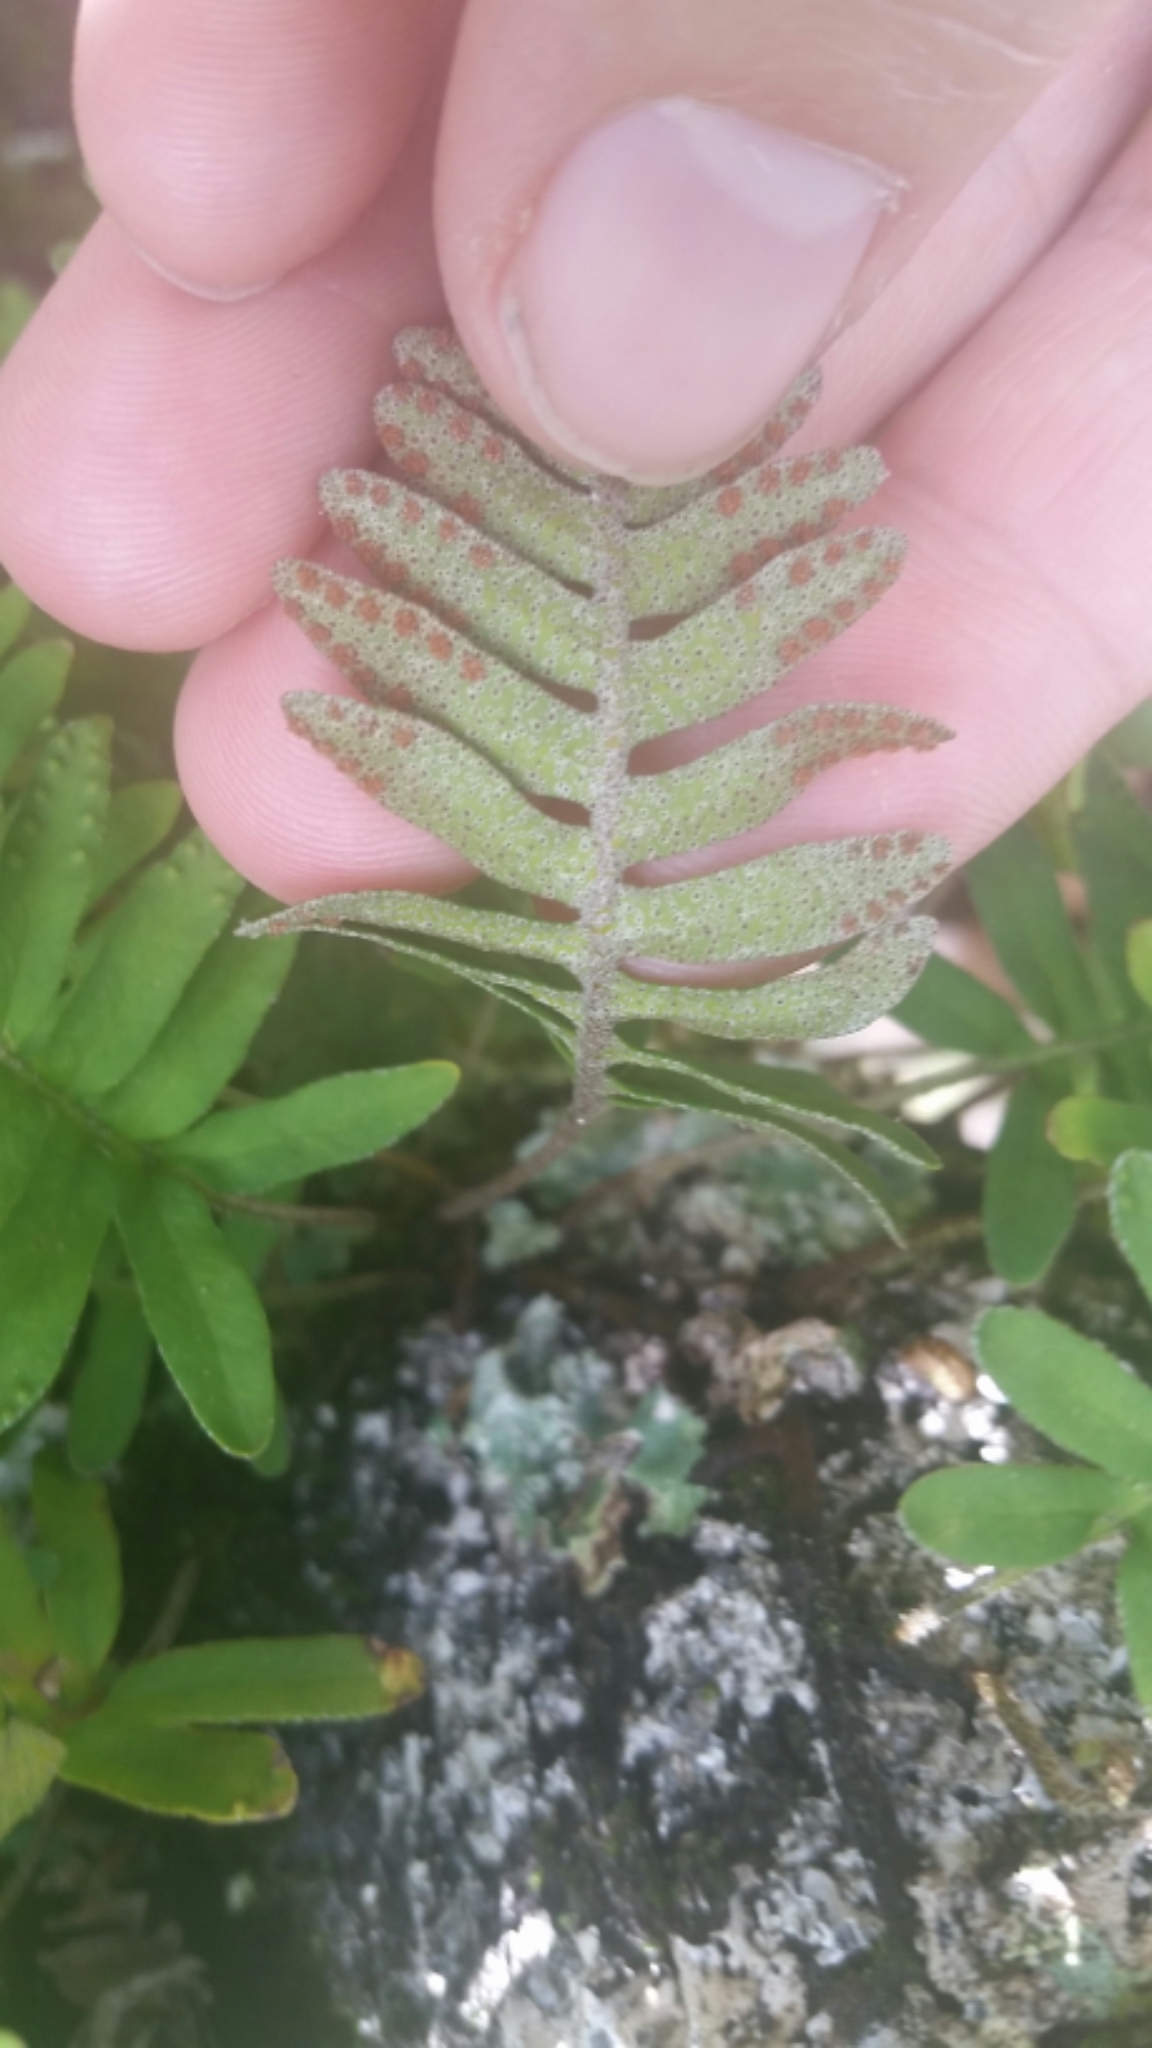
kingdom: Plantae
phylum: Tracheophyta
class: Polypodiopsida
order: Polypodiales
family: Polypodiaceae
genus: Pleopeltis
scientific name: Pleopeltis michauxiana
